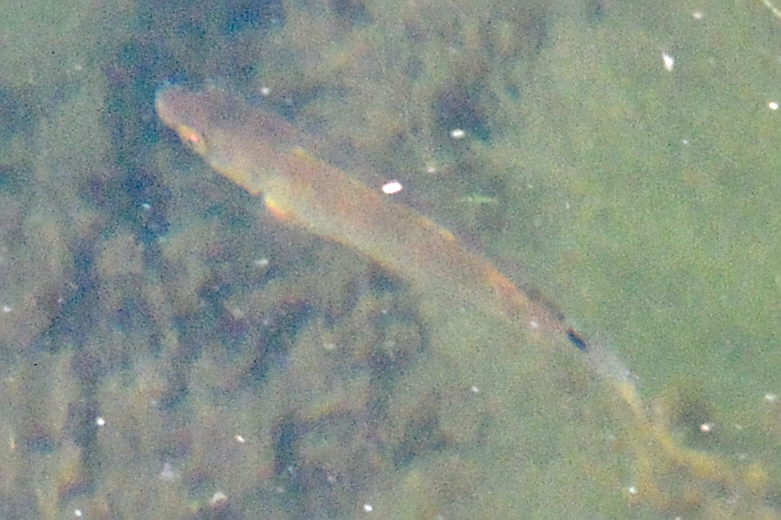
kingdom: Animalia
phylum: Chordata
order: Perciformes
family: Labridae
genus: Ctenolabrus
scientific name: Ctenolabrus rupestris
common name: Goldsinny
